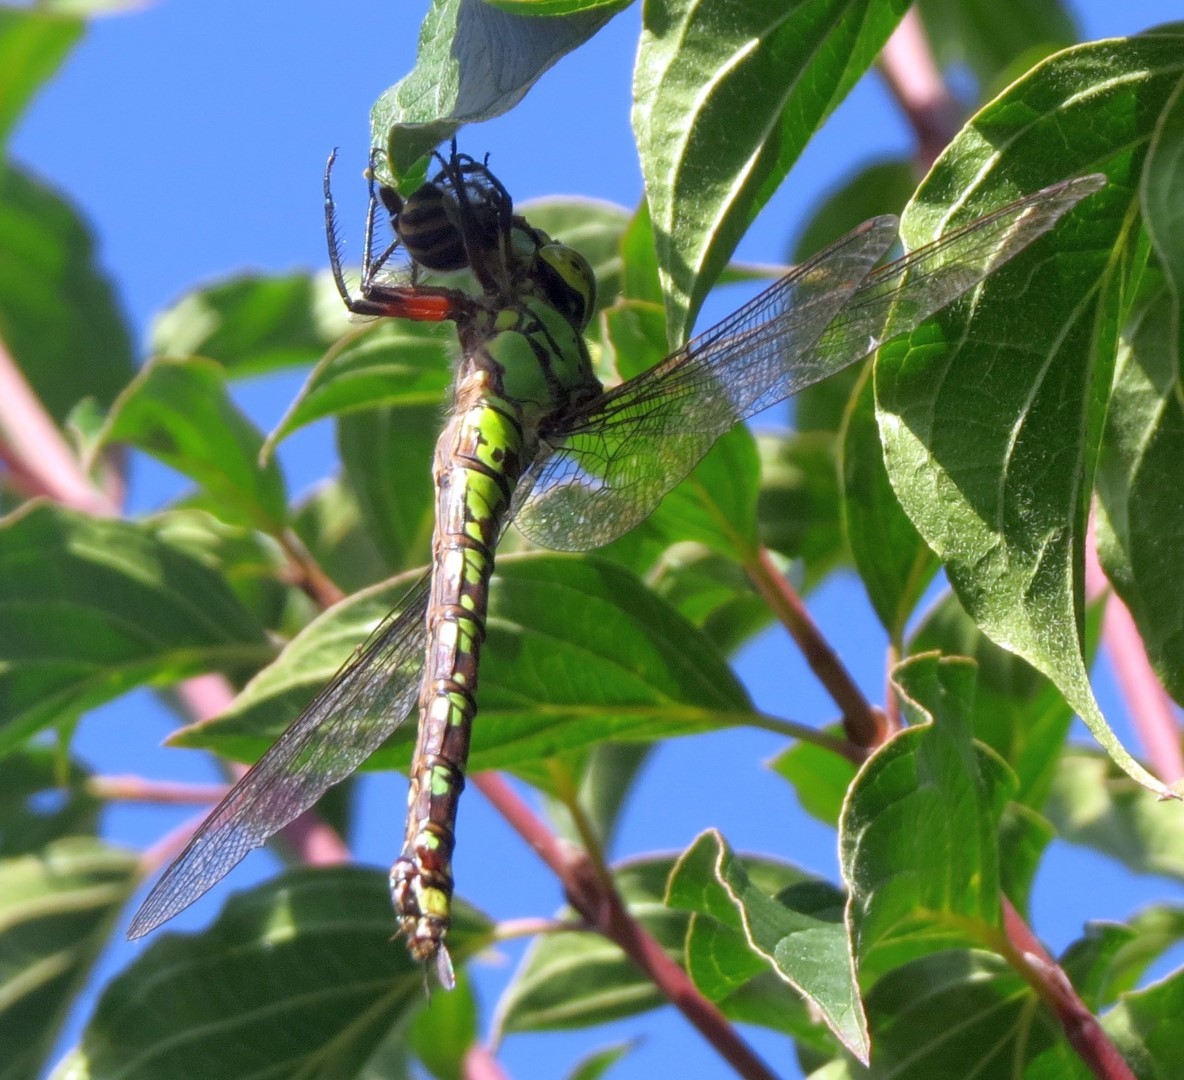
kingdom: Animalia
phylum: Arthropoda
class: Insecta
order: Odonata
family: Aeshnidae
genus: Aeshna
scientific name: Aeshna cyanea
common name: Southern hawker
